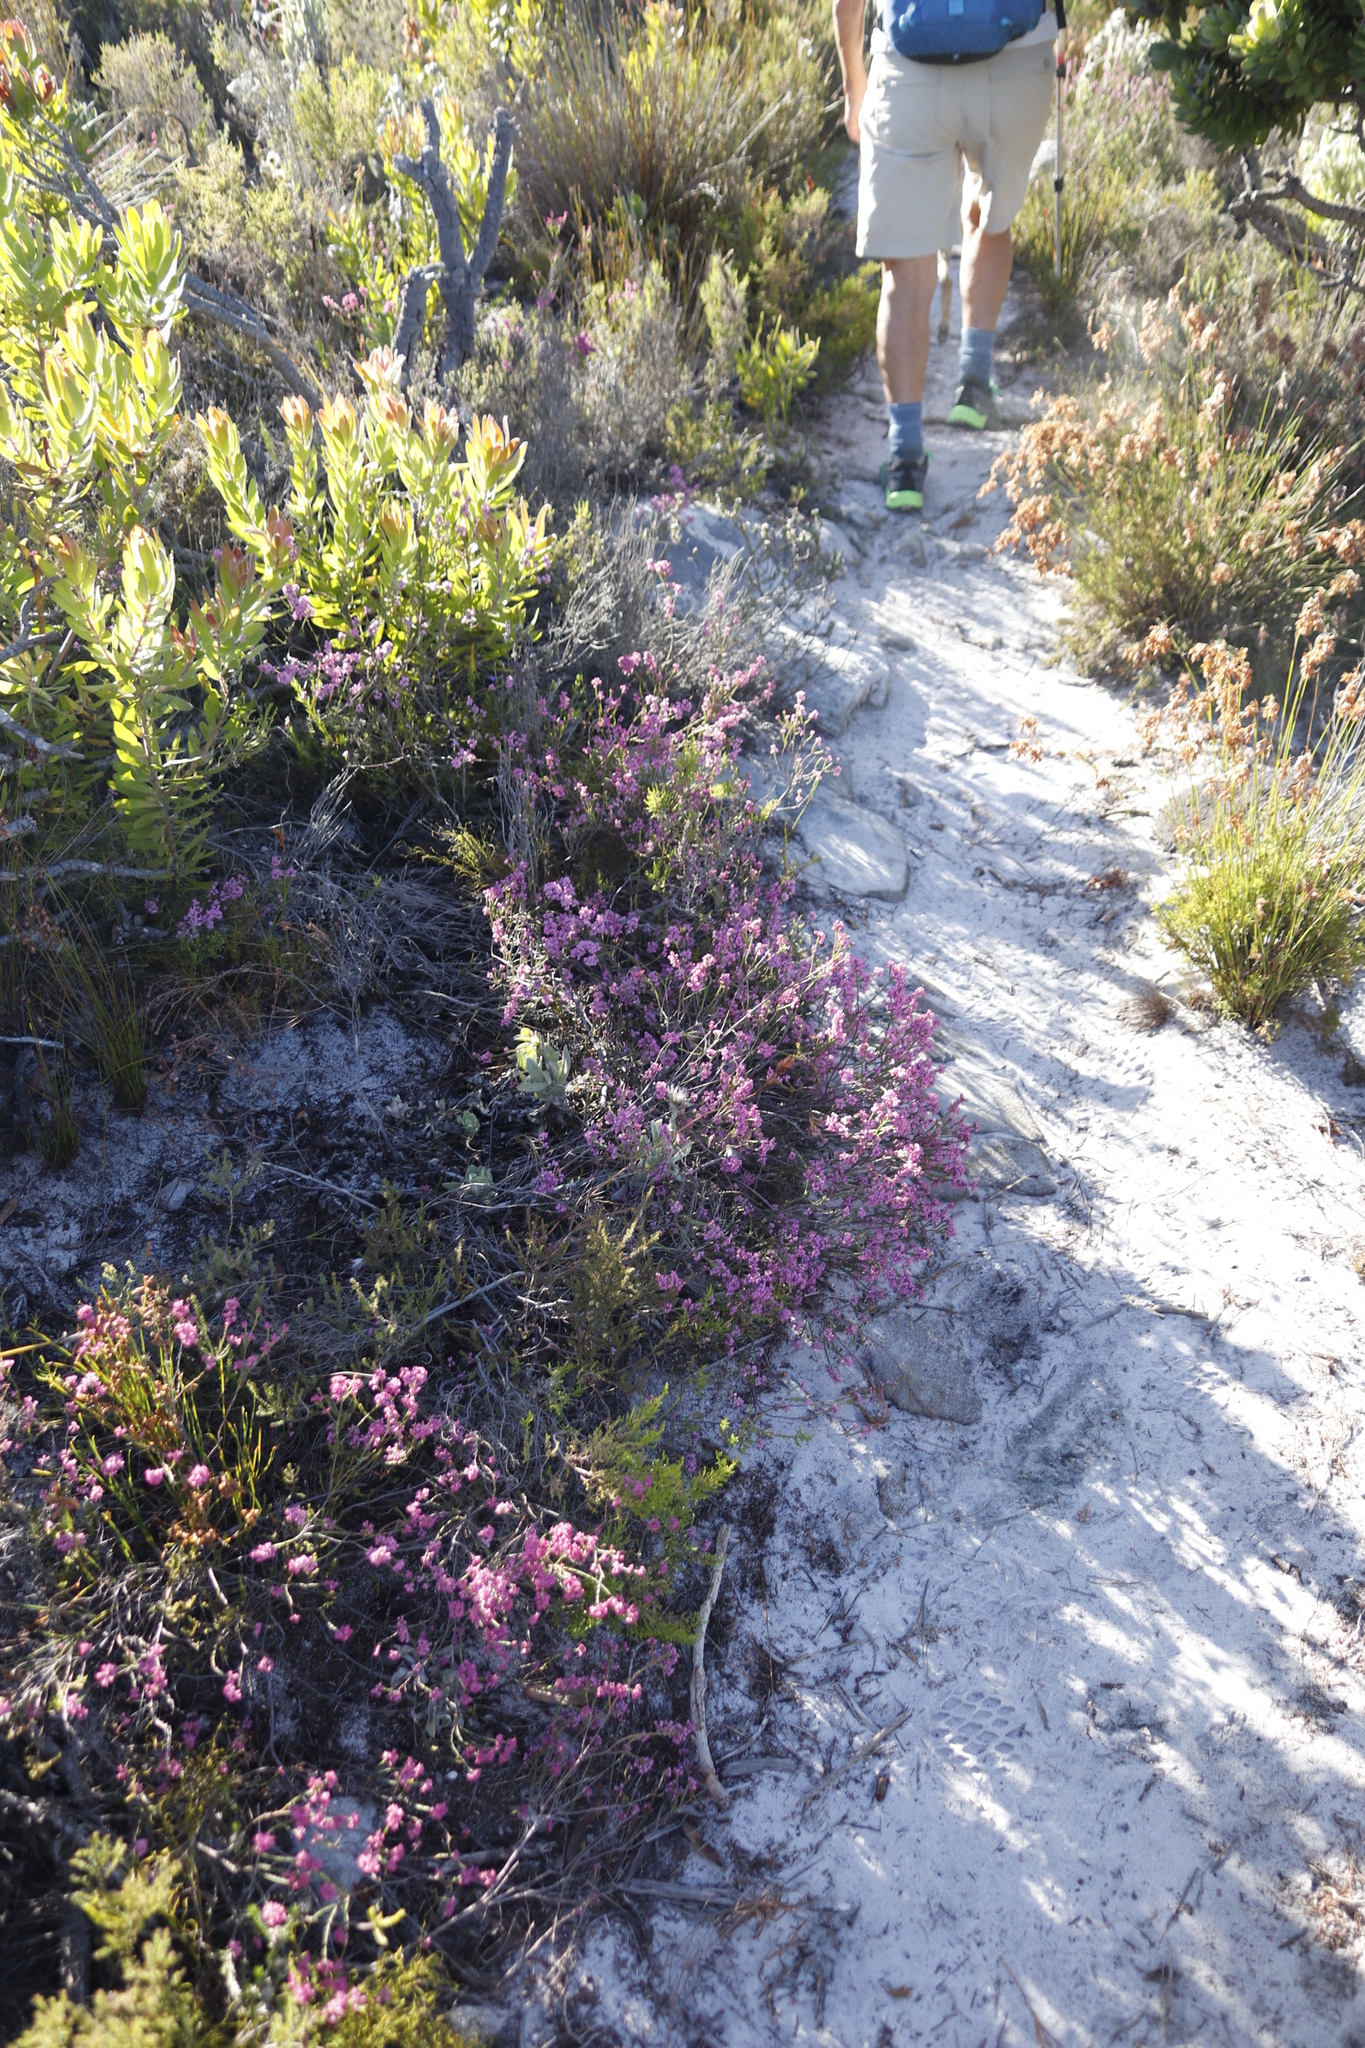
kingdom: Plantae
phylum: Tracheophyta
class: Magnoliopsida
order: Ericales
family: Ericaceae
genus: Erica
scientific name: Erica corifolia
